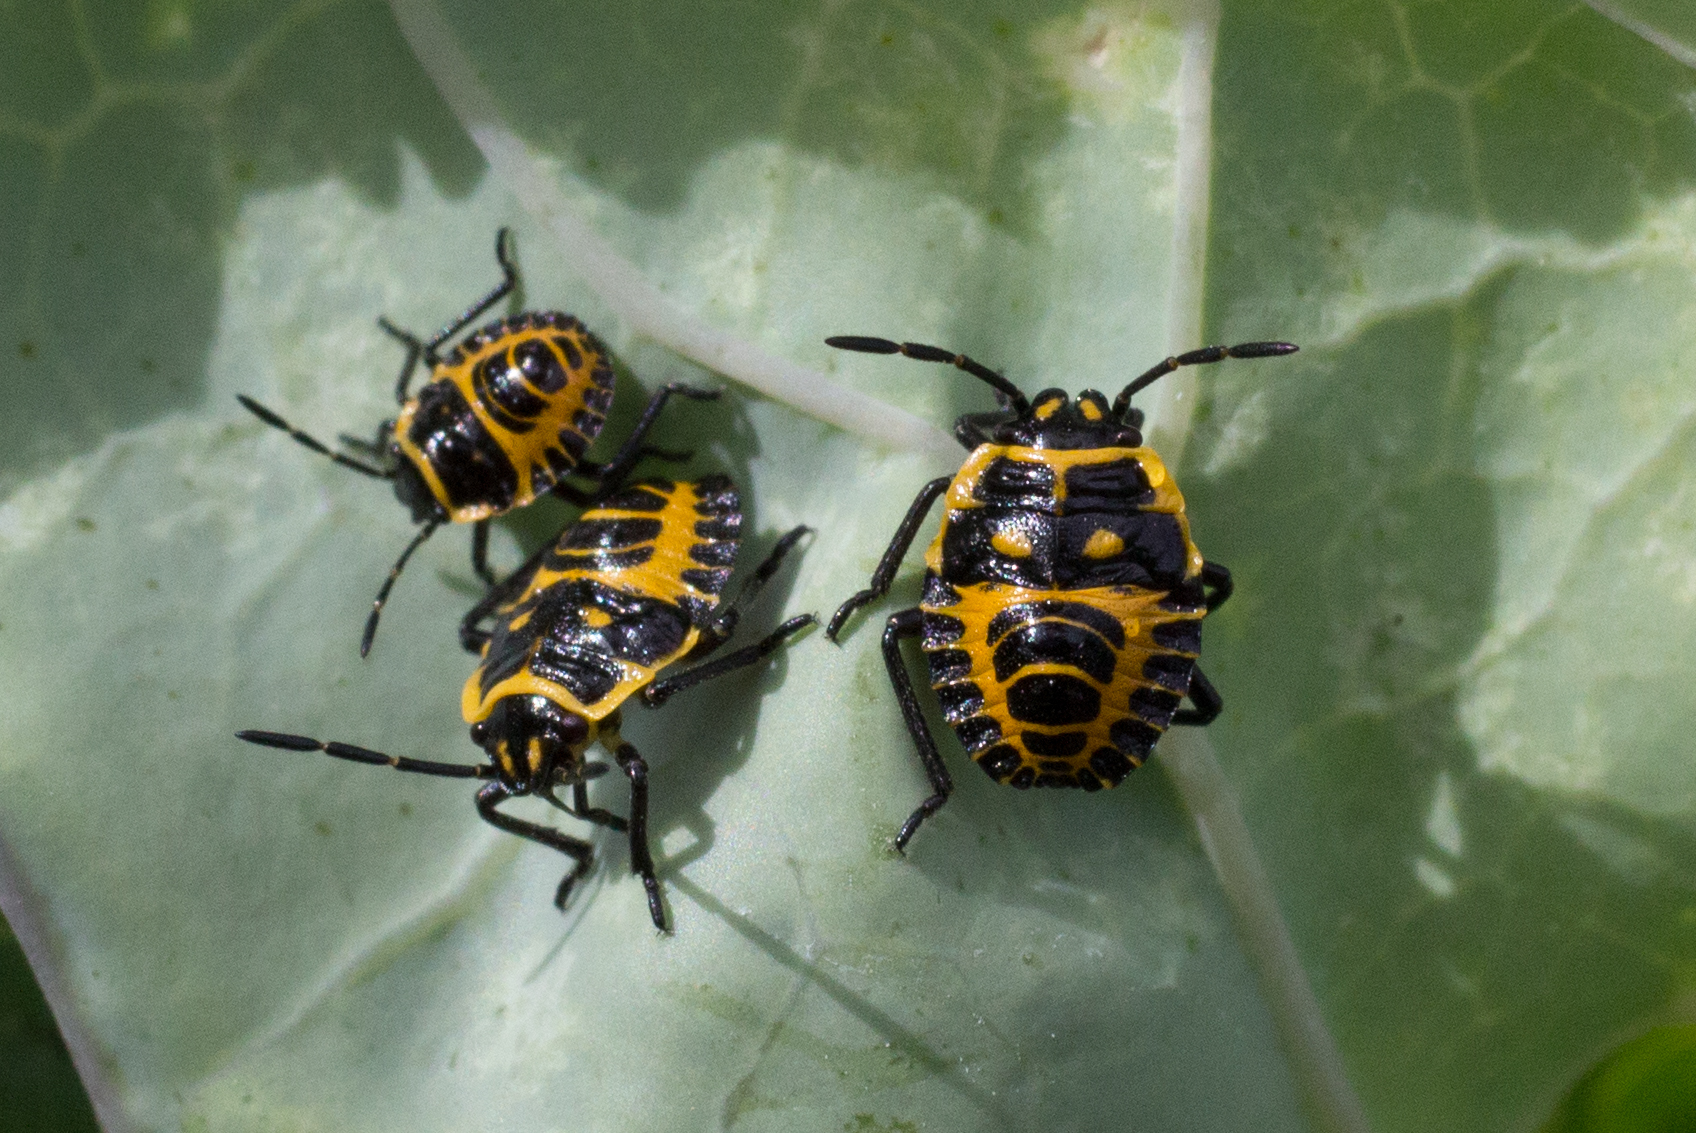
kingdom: Animalia
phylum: Arthropoda
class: Insecta
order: Hemiptera
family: Pentatomidae
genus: Eurydema
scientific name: Eurydema ventralis
